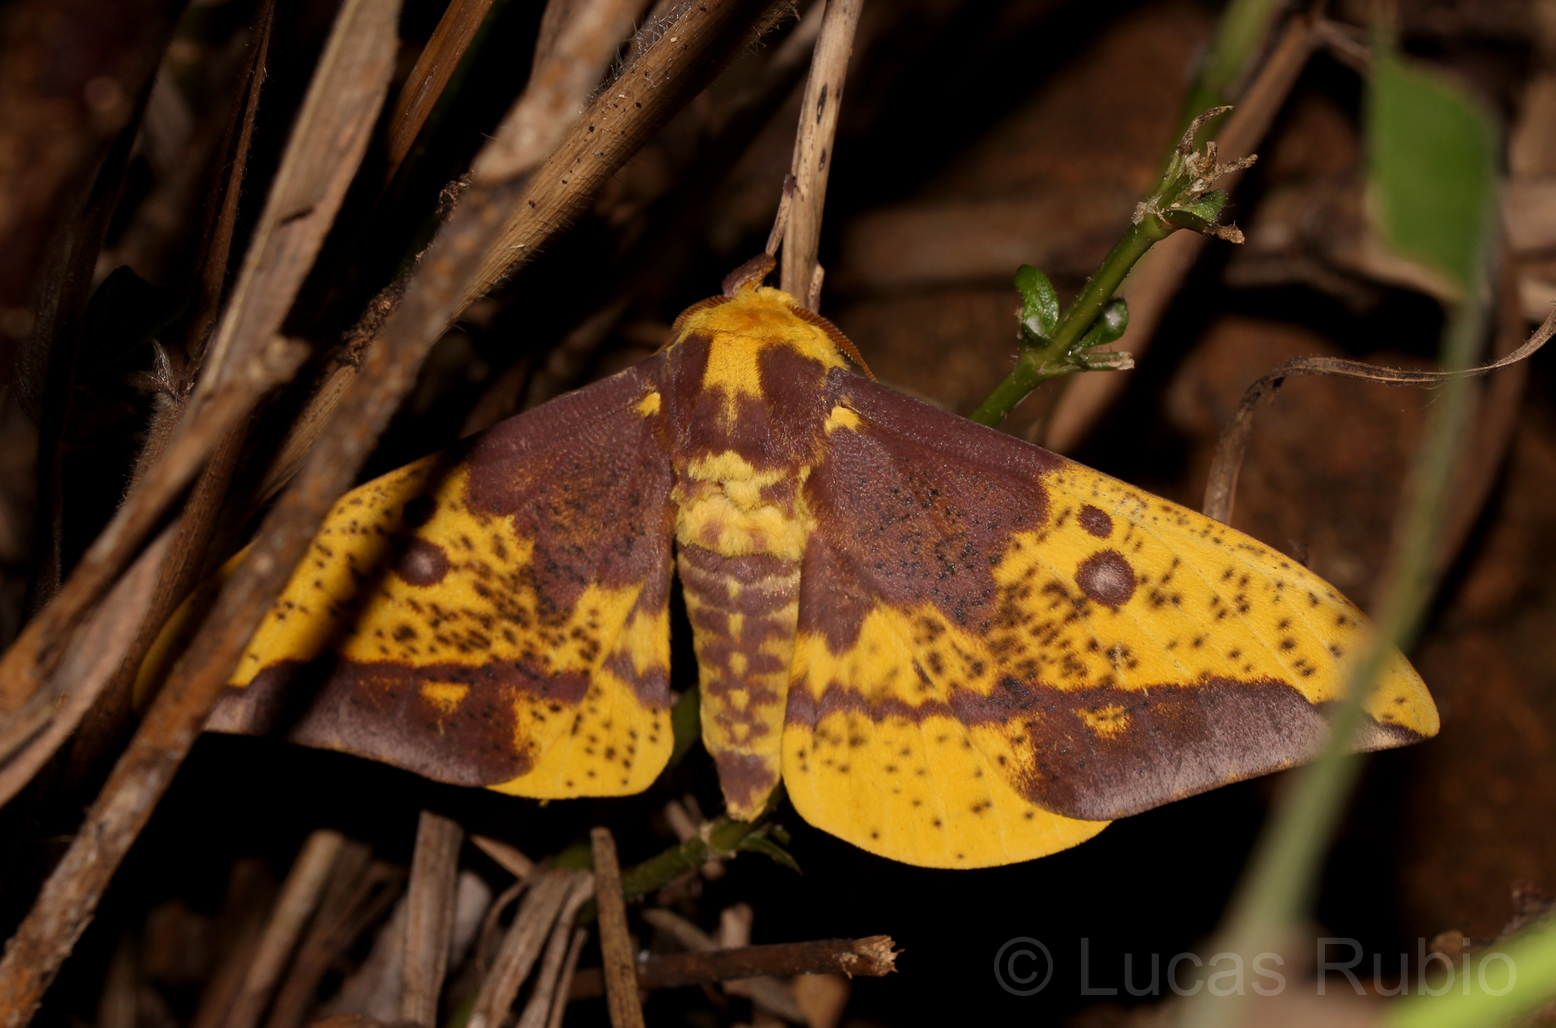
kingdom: Animalia
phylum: Arthropoda
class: Insecta
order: Lepidoptera
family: Saturniidae
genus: Eacles
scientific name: Eacles imperialis
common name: Imperial moth
